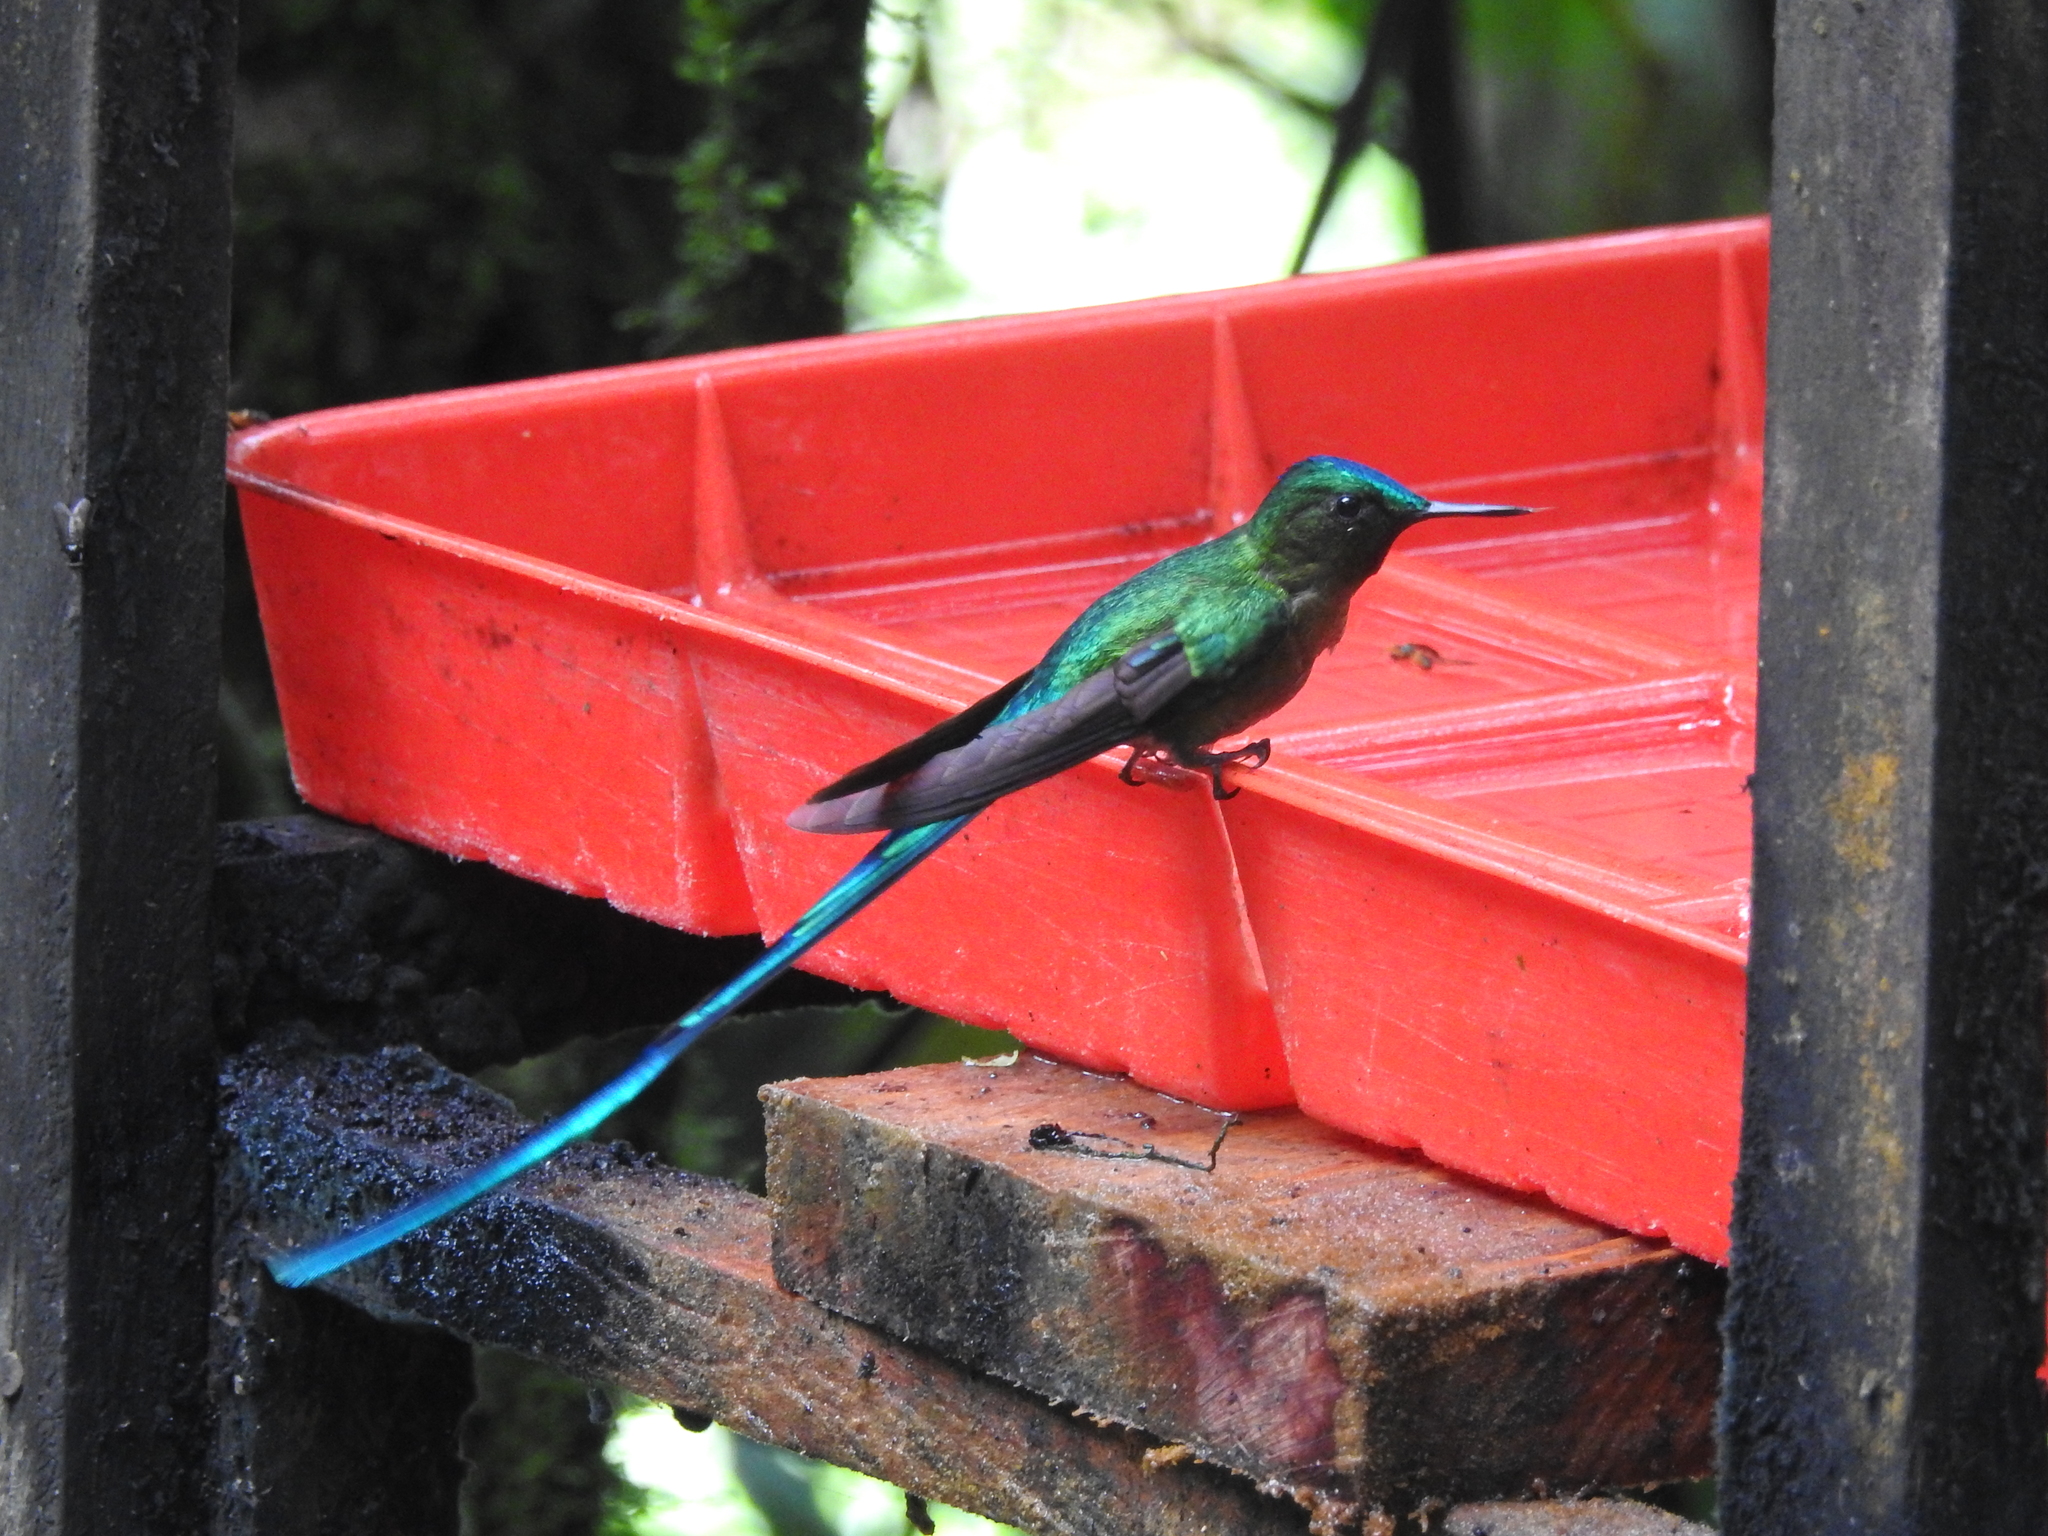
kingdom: Animalia
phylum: Chordata
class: Aves
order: Apodiformes
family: Trochilidae
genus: Aglaiocercus
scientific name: Aglaiocercus kingii
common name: Long-tailed sylph
